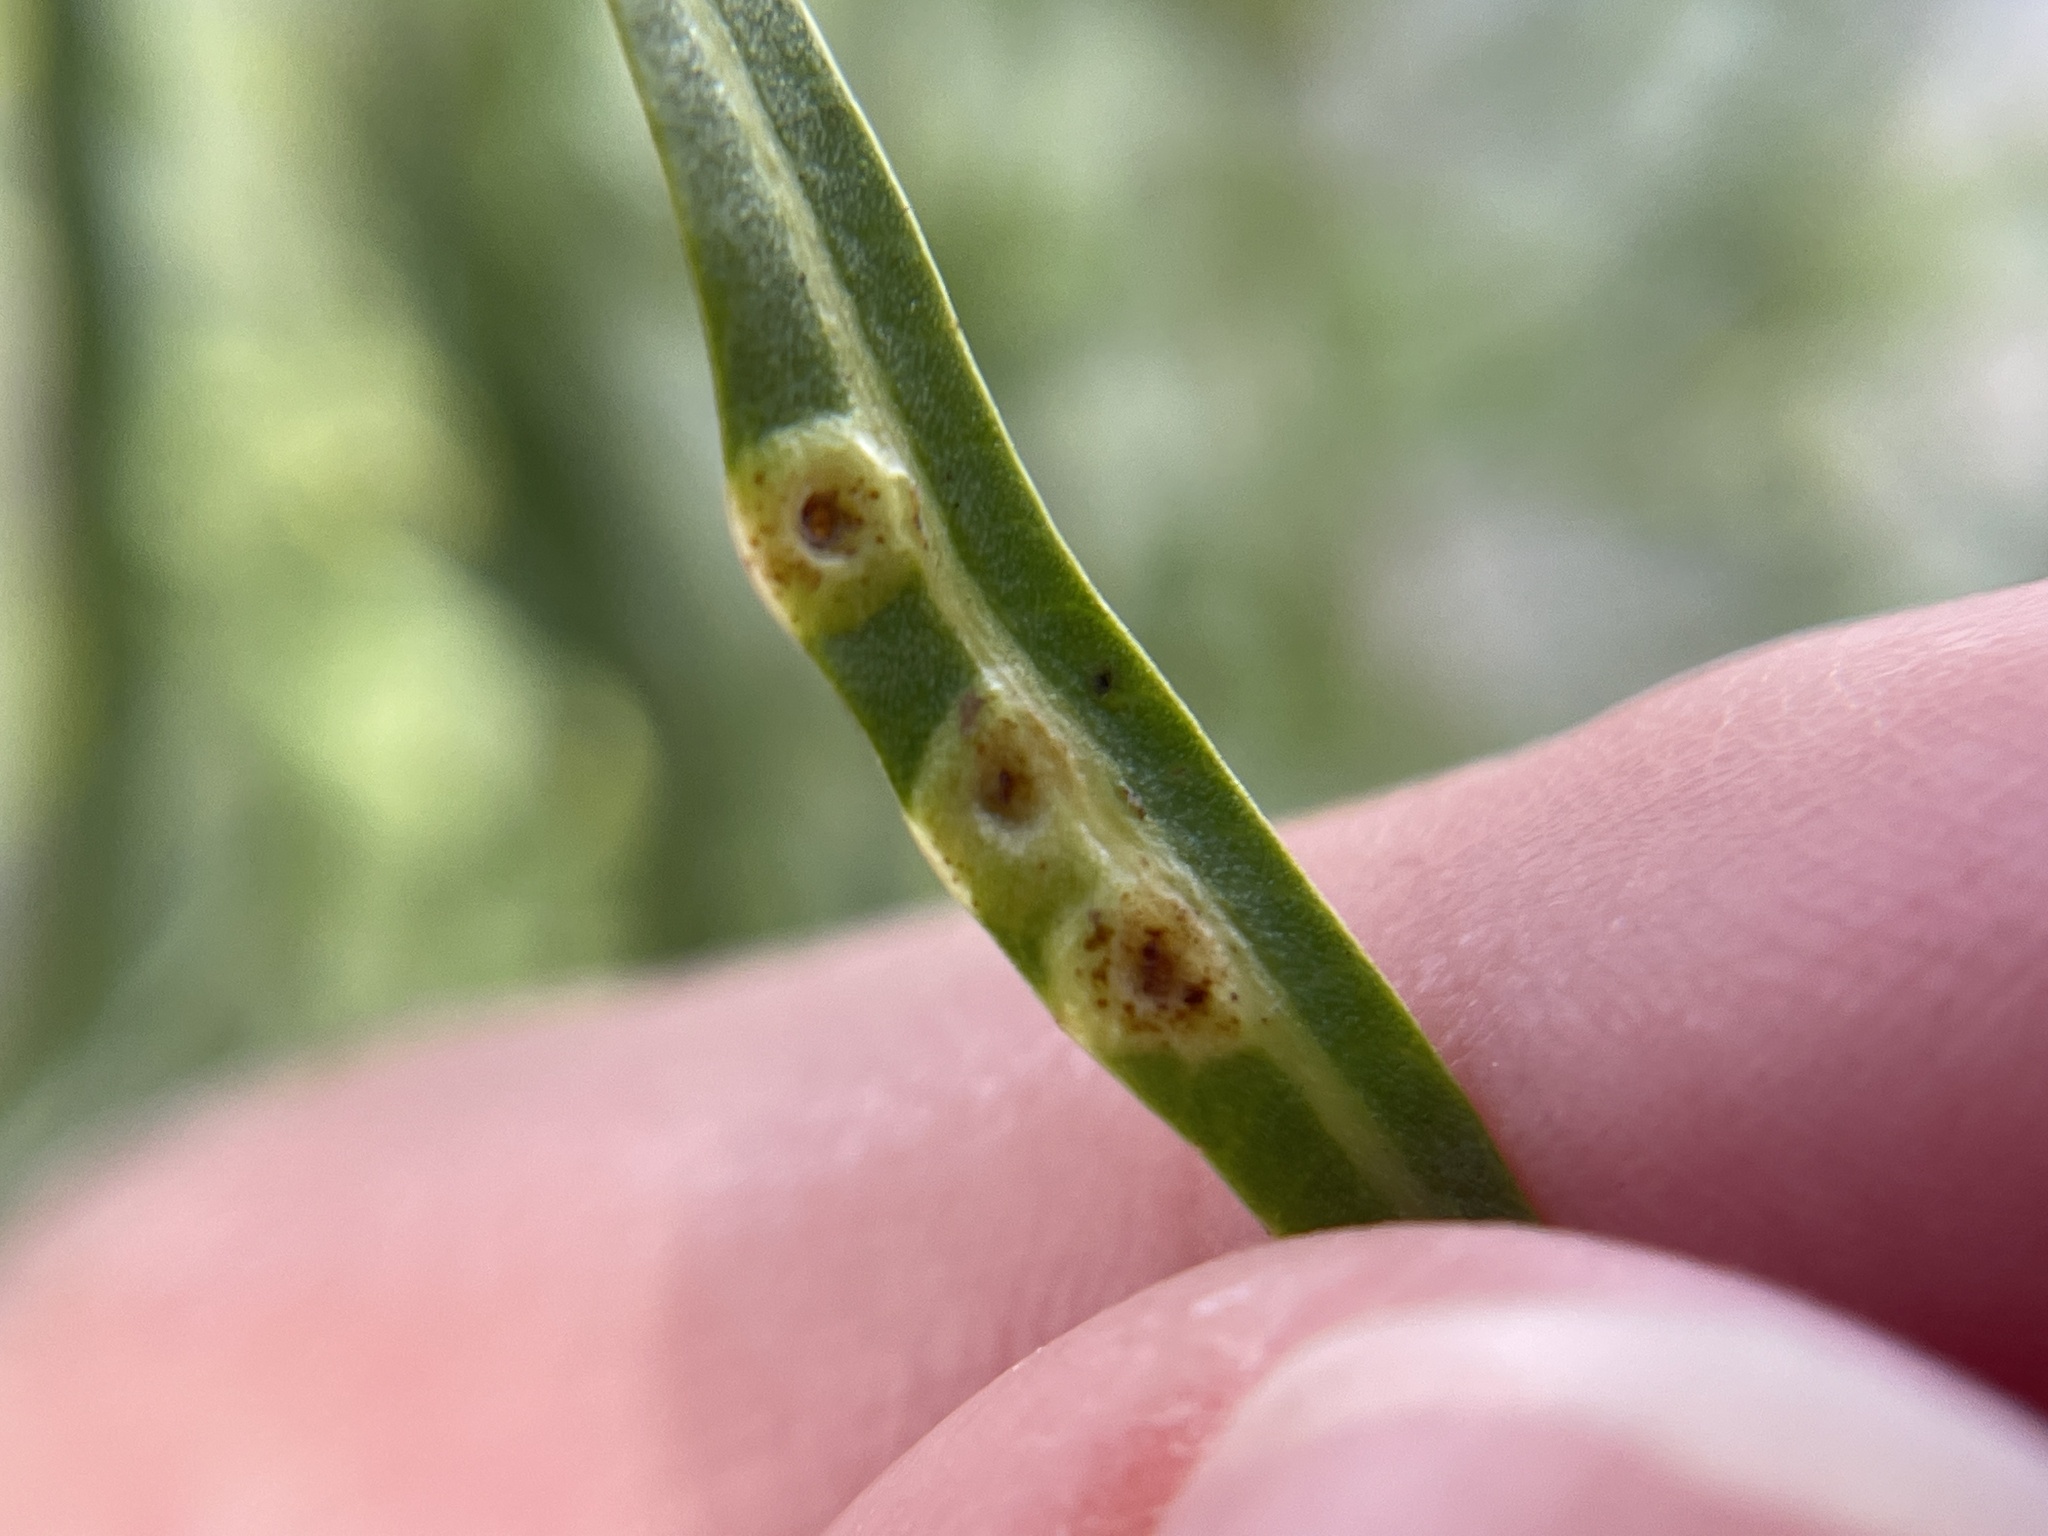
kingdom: Animalia
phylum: Arthropoda
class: Insecta
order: Hemiptera
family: Calophyidae
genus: Calophya
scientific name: Calophya schini
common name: Pepper tree psyllid
